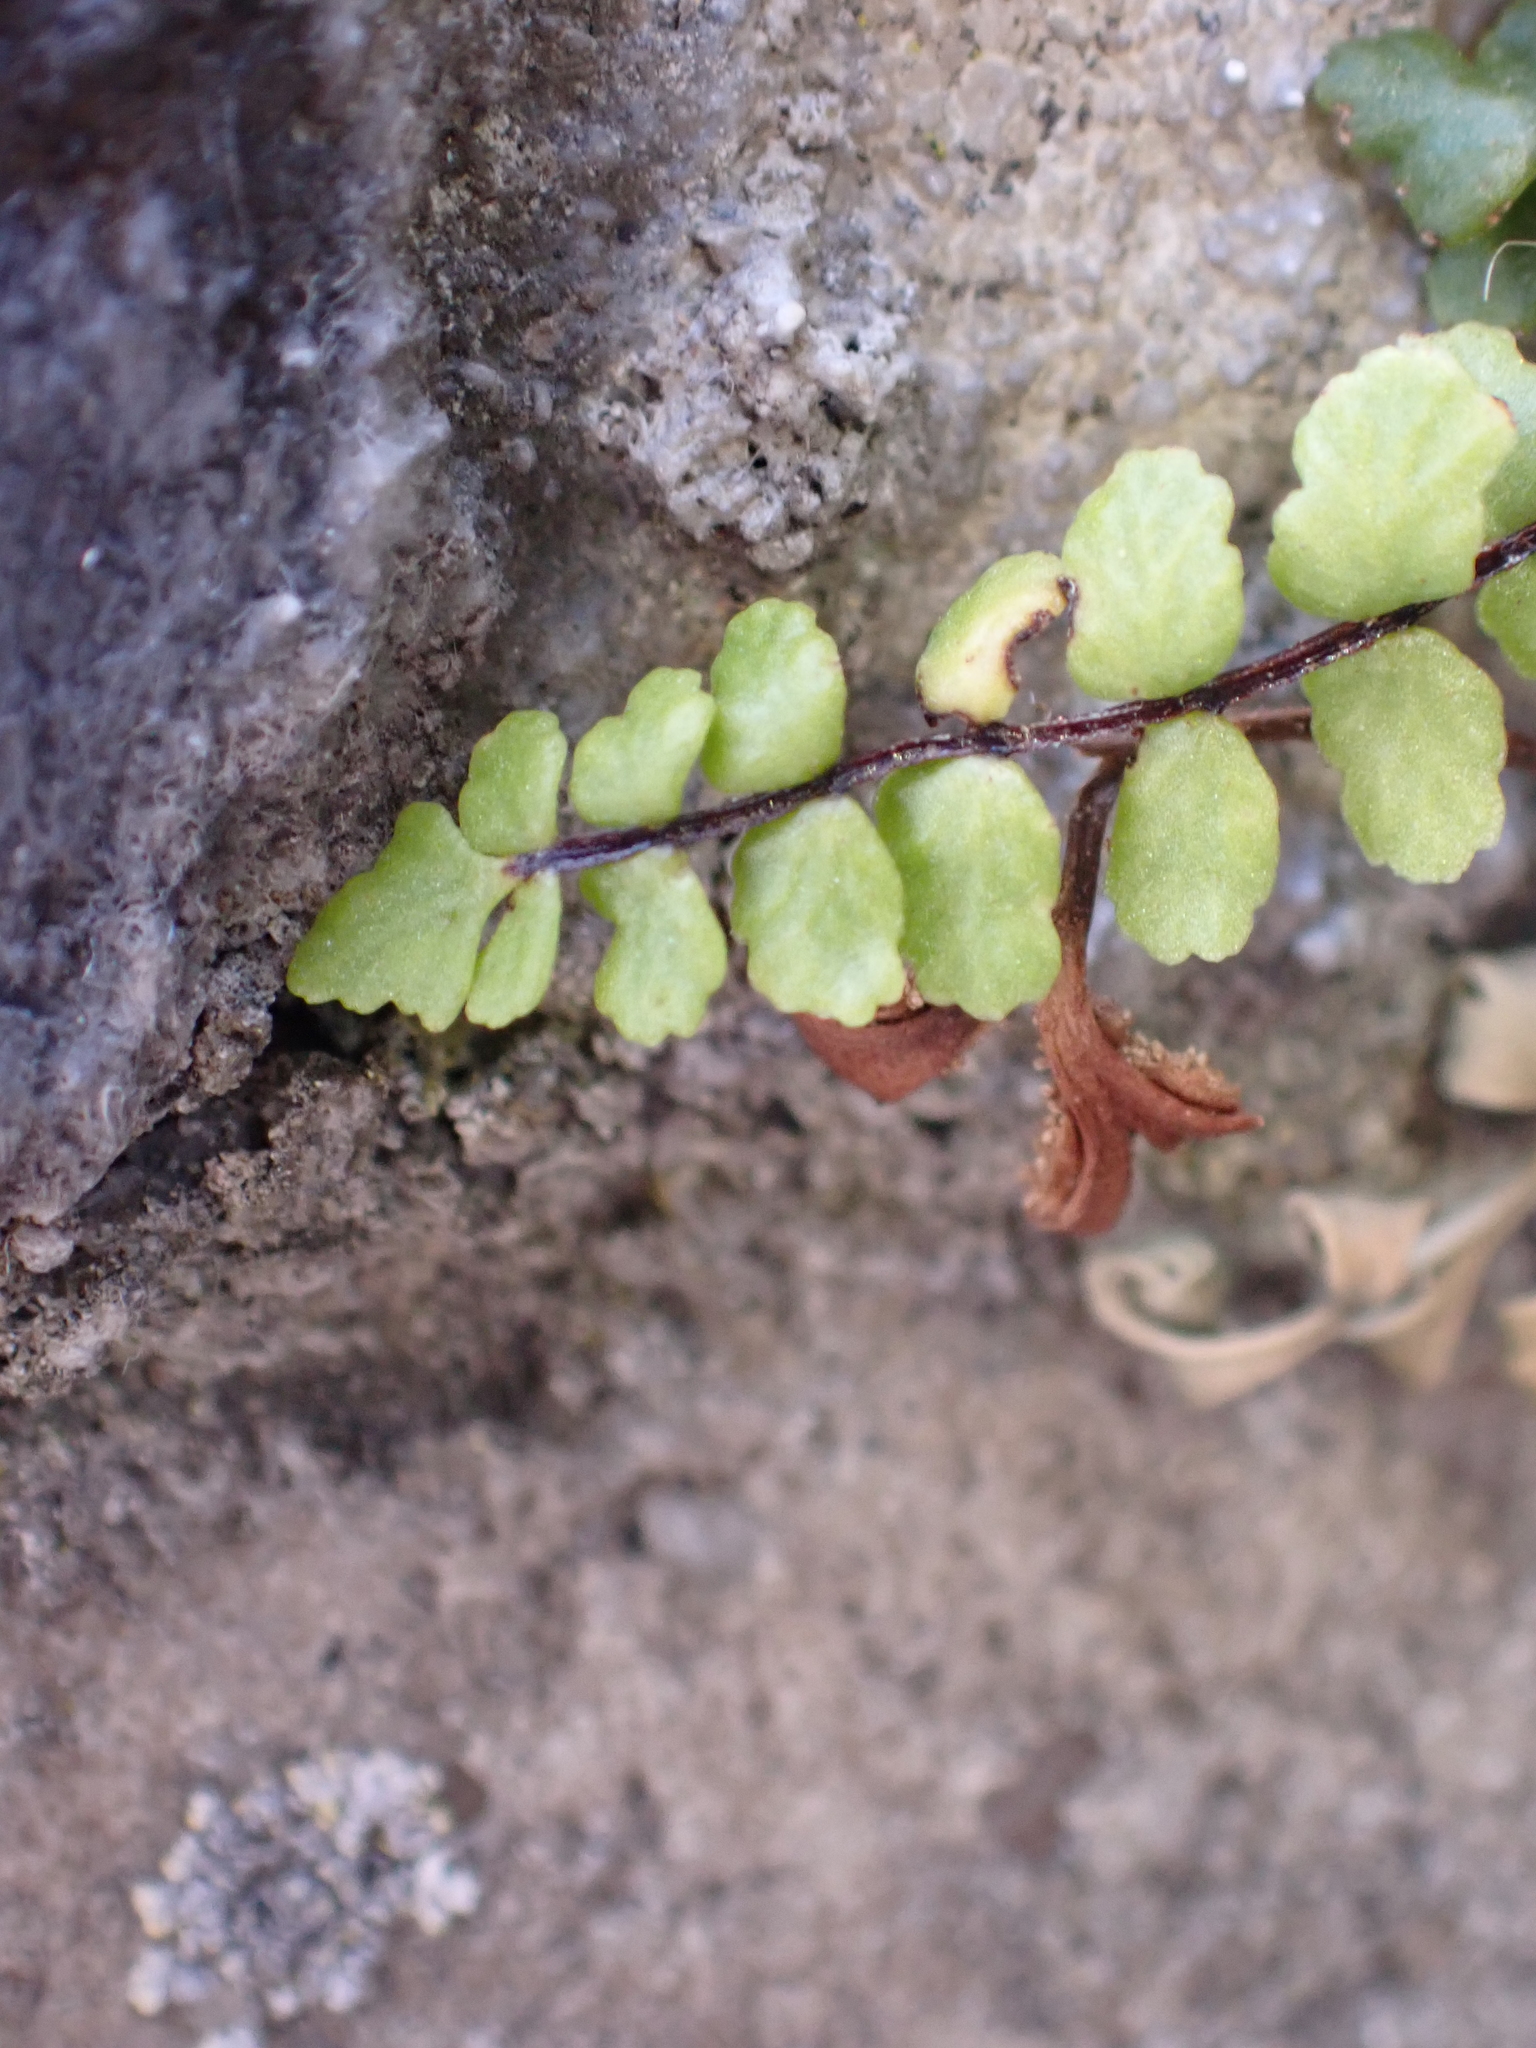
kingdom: Plantae
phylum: Tracheophyta
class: Polypodiopsida
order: Polypodiales
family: Aspleniaceae
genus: Asplenium
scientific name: Asplenium trichomanes
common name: Maidenhair spleenwort
